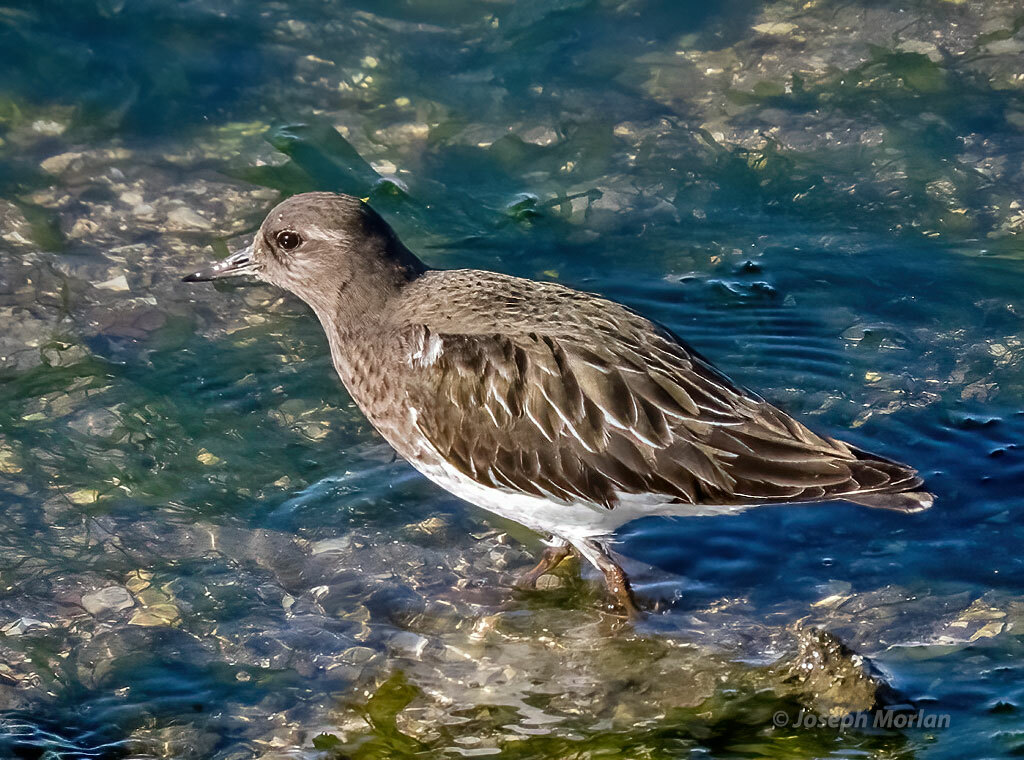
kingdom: Animalia
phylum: Chordata
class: Aves
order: Charadriiformes
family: Scolopacidae
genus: Arenaria
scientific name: Arenaria melanocephala
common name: Black turnstone
